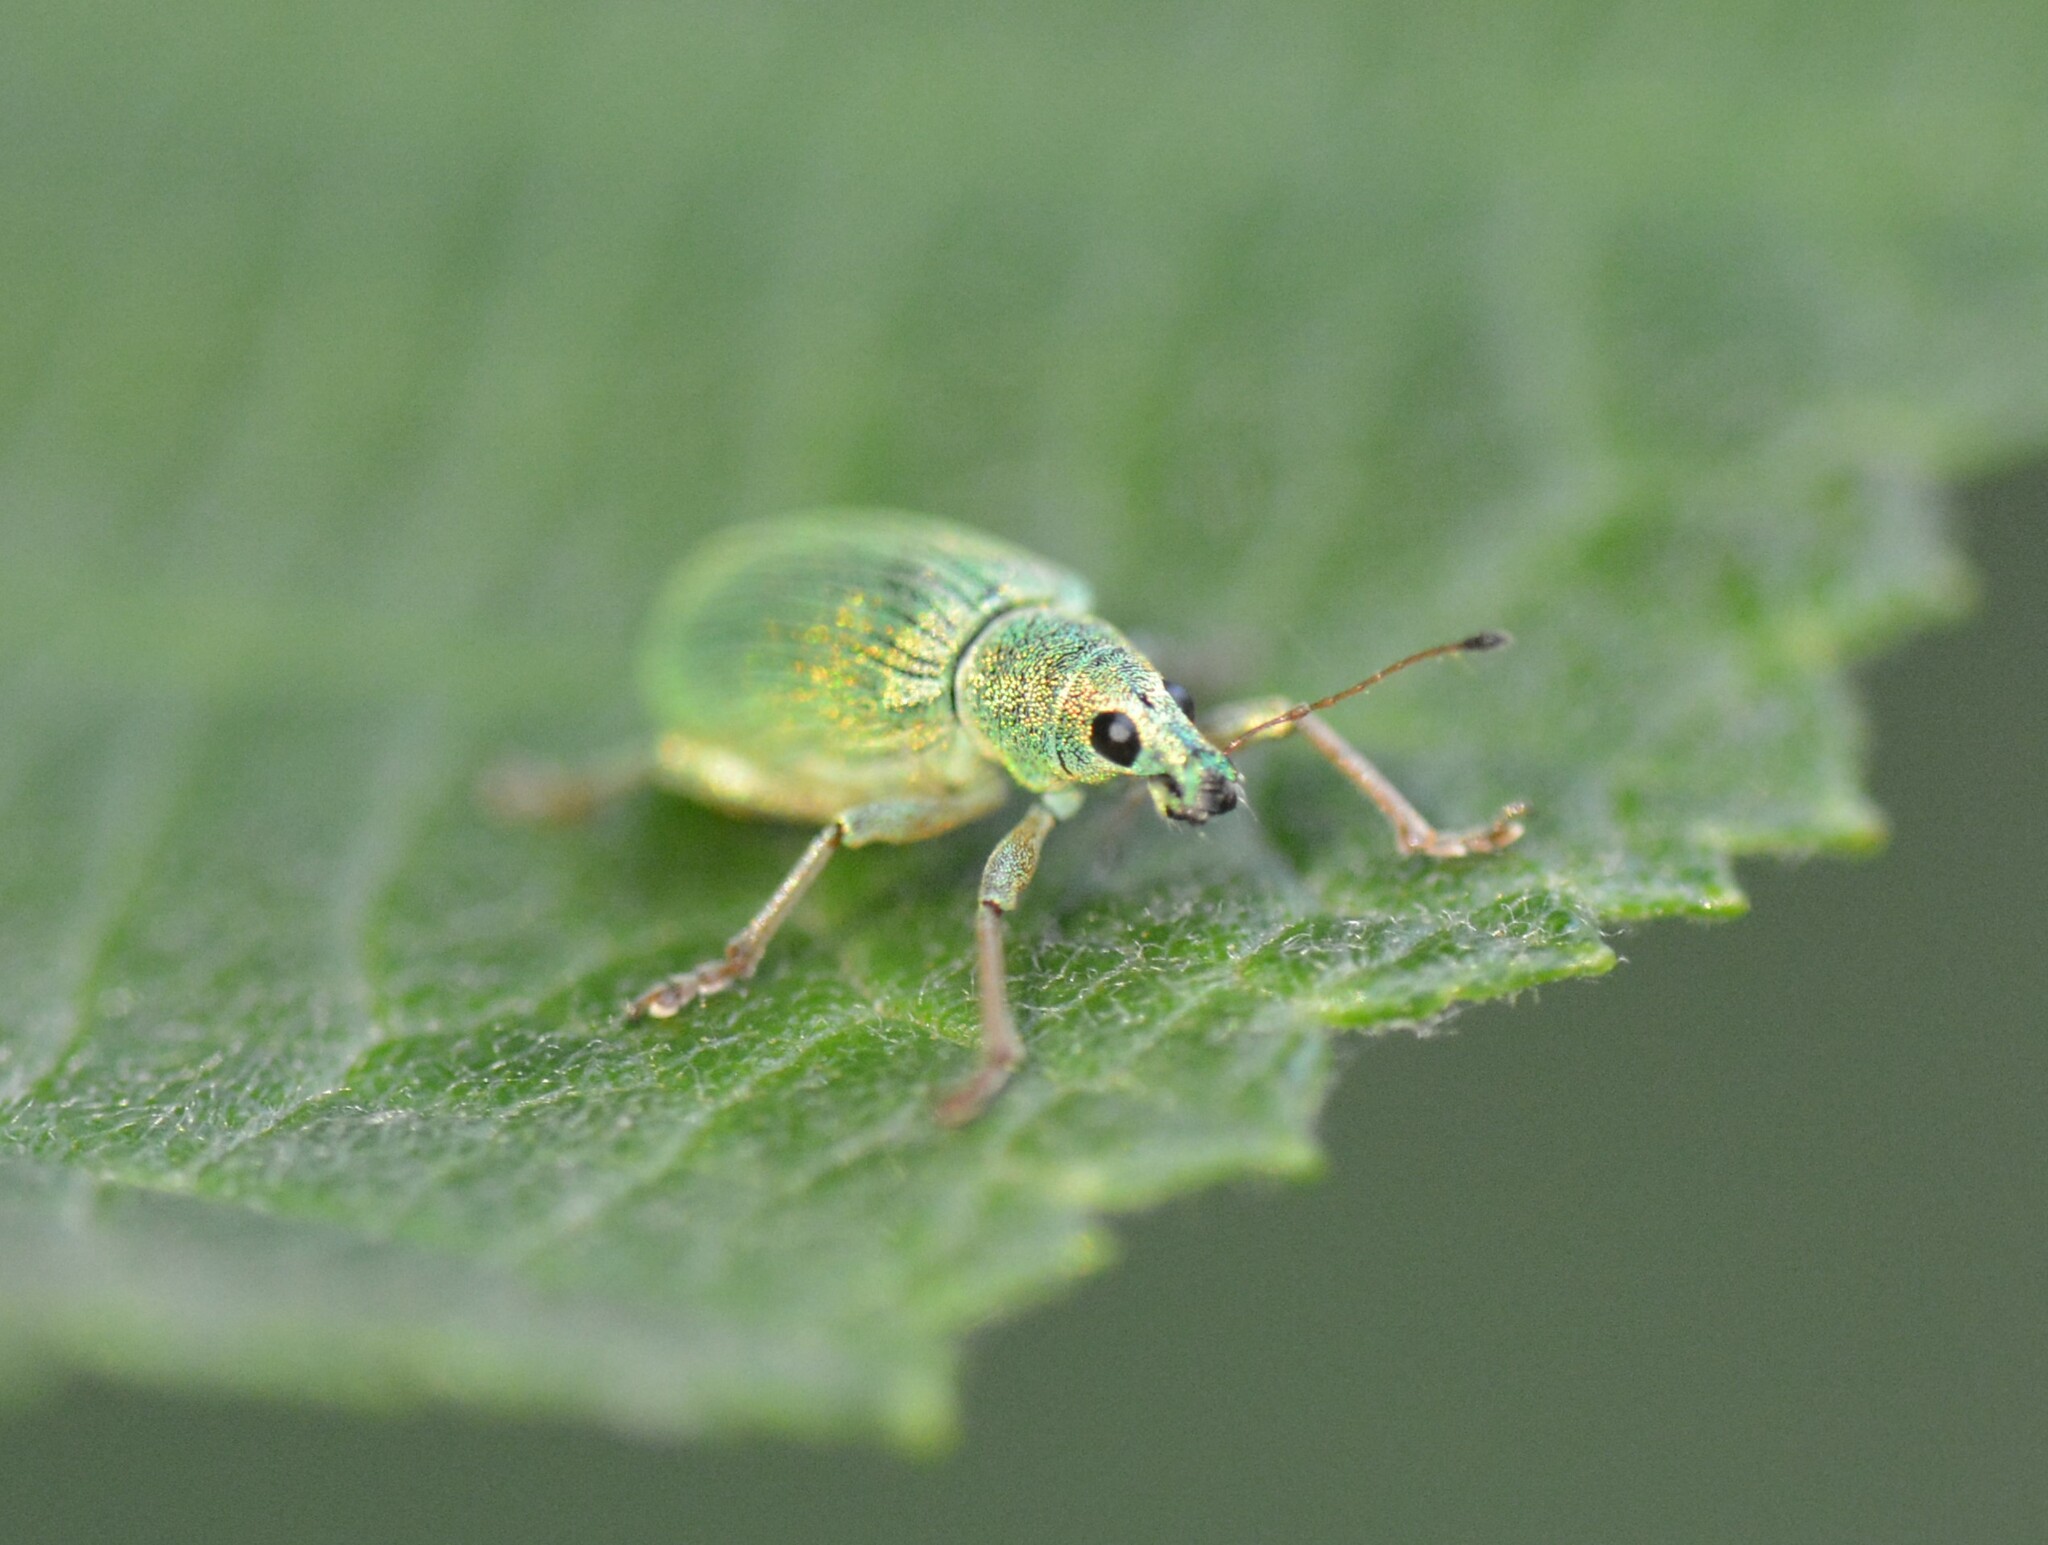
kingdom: Animalia
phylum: Arthropoda
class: Insecta
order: Coleoptera
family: Curculionidae
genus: Polydrusus
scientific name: Polydrusus formosus
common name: Weevil
